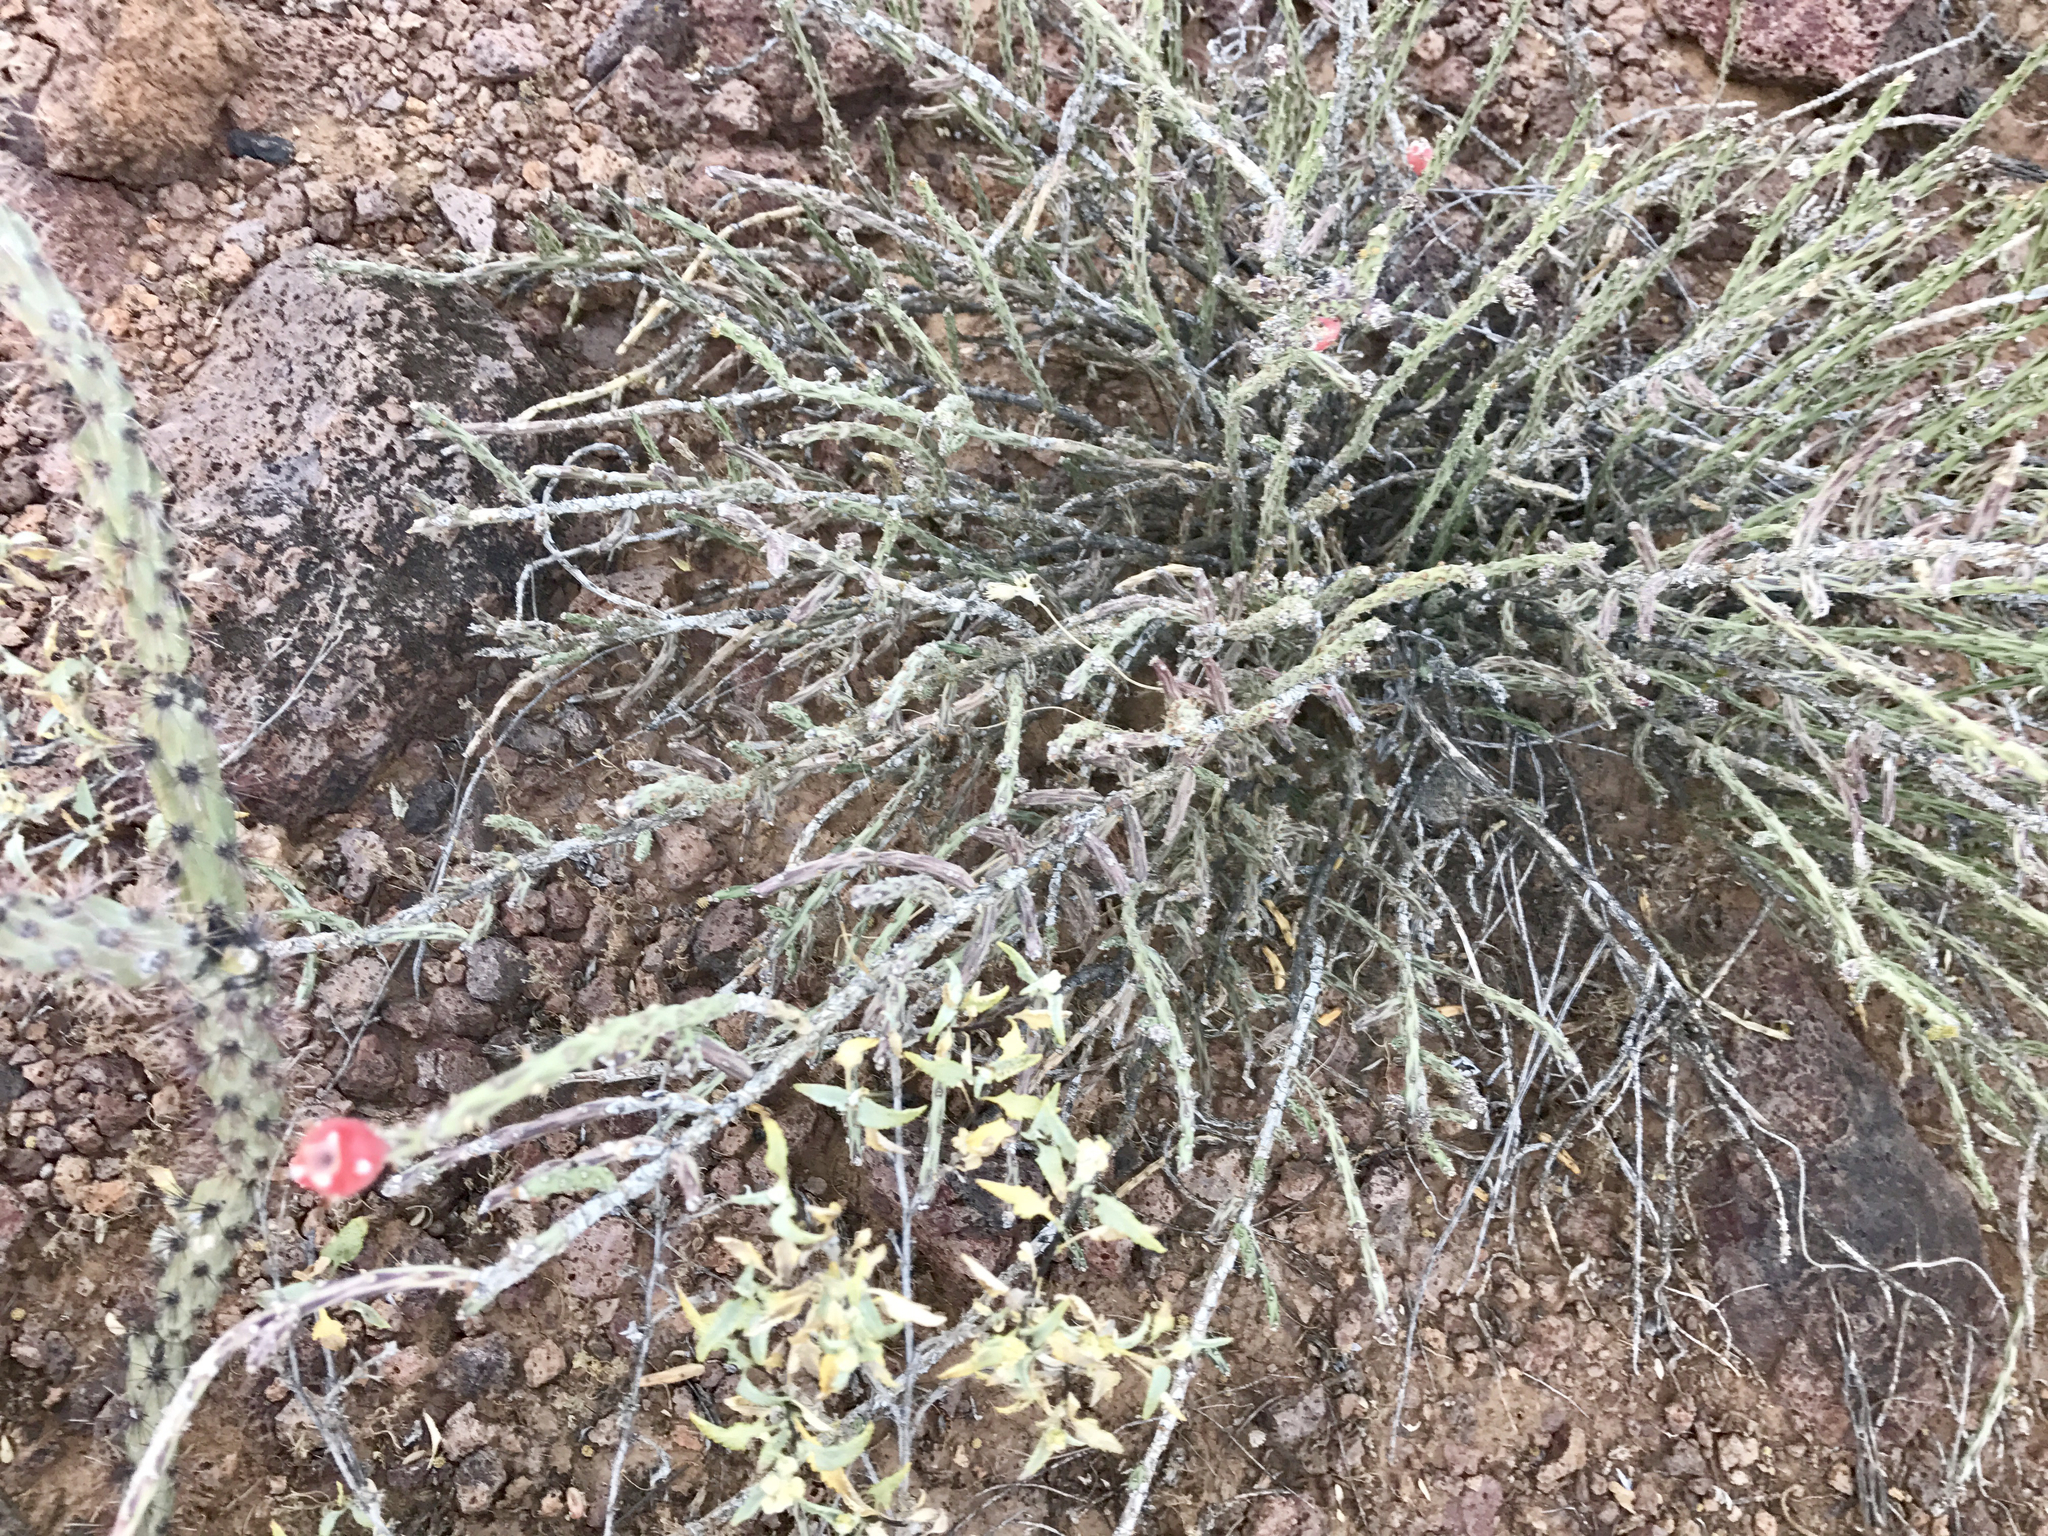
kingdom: Plantae
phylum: Tracheophyta
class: Magnoliopsida
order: Caryophyllales
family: Cactaceae
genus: Cylindropuntia
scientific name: Cylindropuntia leptocaulis
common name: Christmas cactus
